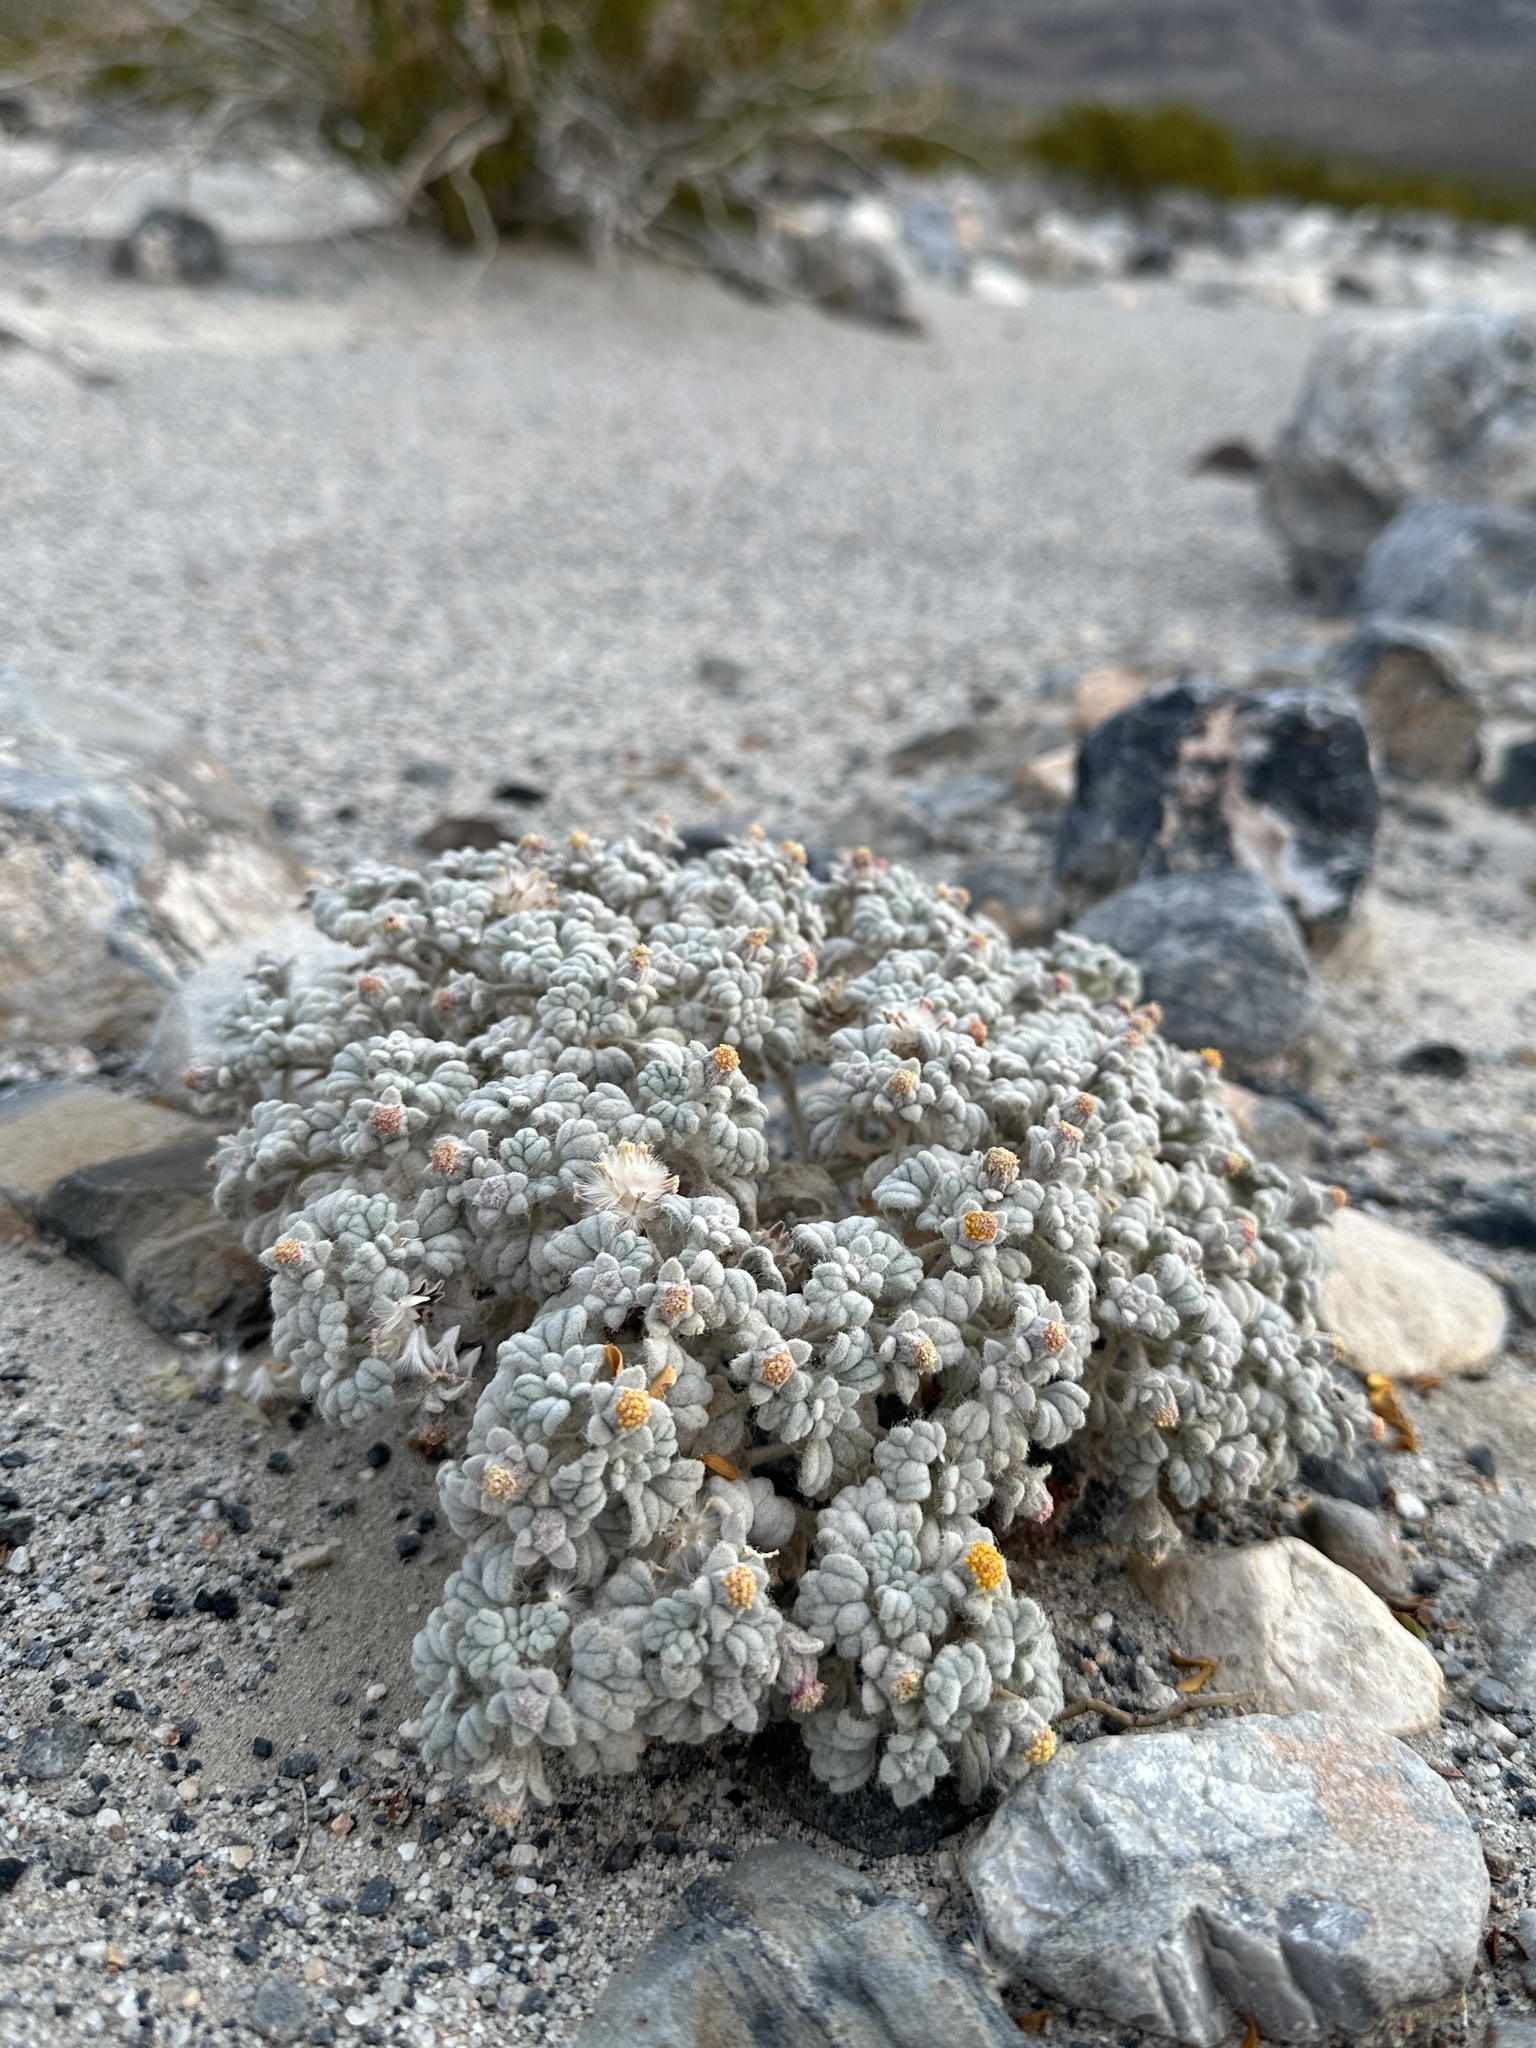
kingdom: Plantae
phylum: Tracheophyta
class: Magnoliopsida
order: Asterales
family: Asteraceae
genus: Psathyrotes
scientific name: Psathyrotes ramosissima
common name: Turtleback
